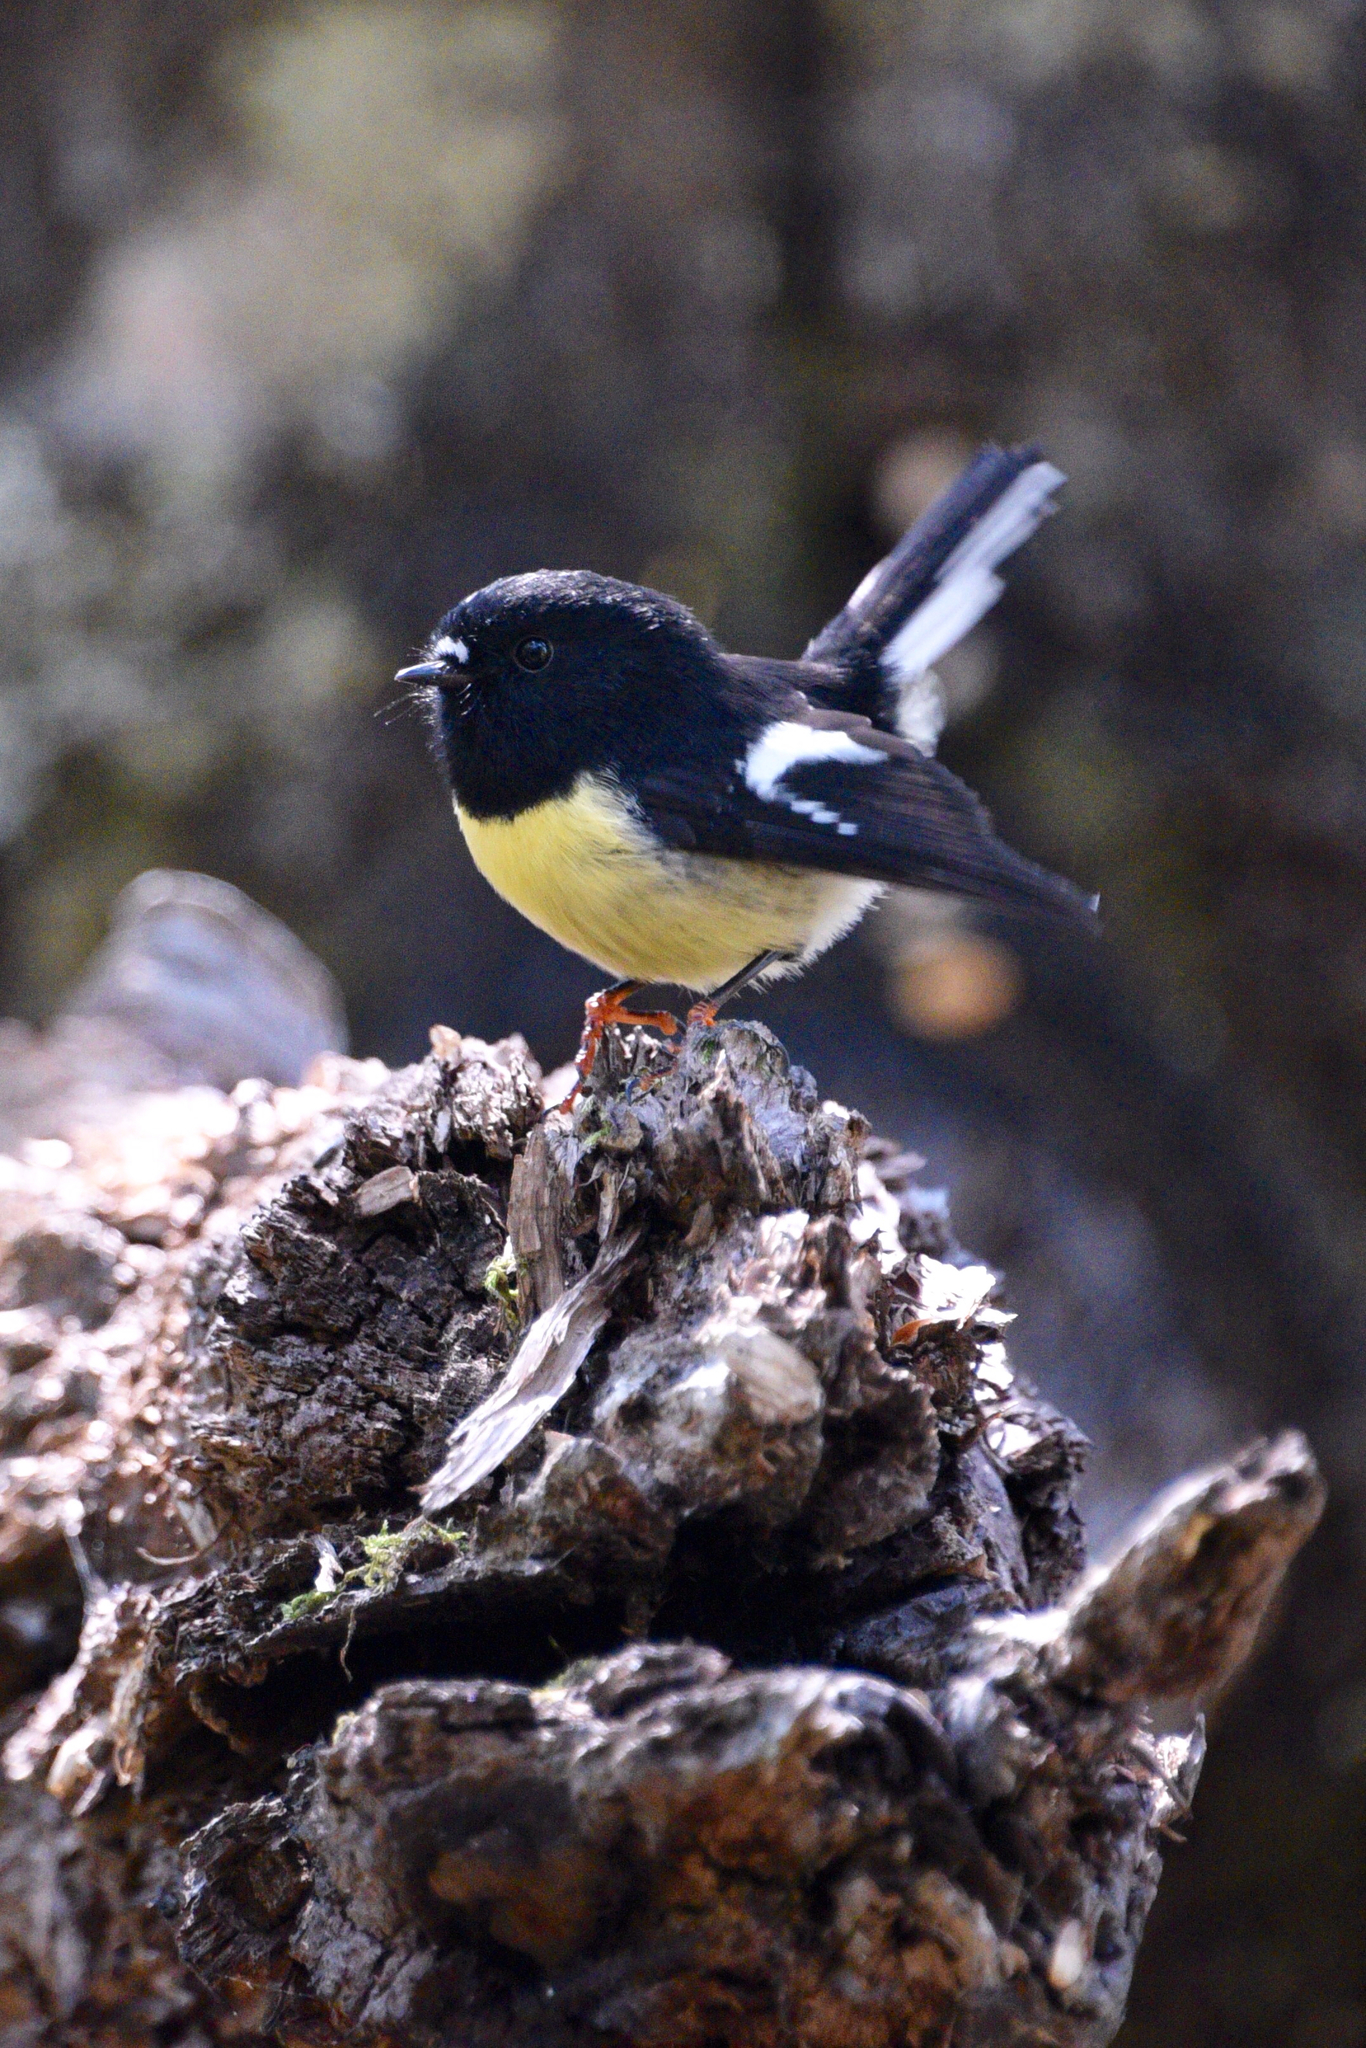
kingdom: Animalia
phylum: Chordata
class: Aves
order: Passeriformes
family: Petroicidae
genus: Petroica
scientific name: Petroica macrocephala
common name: Tomtit
